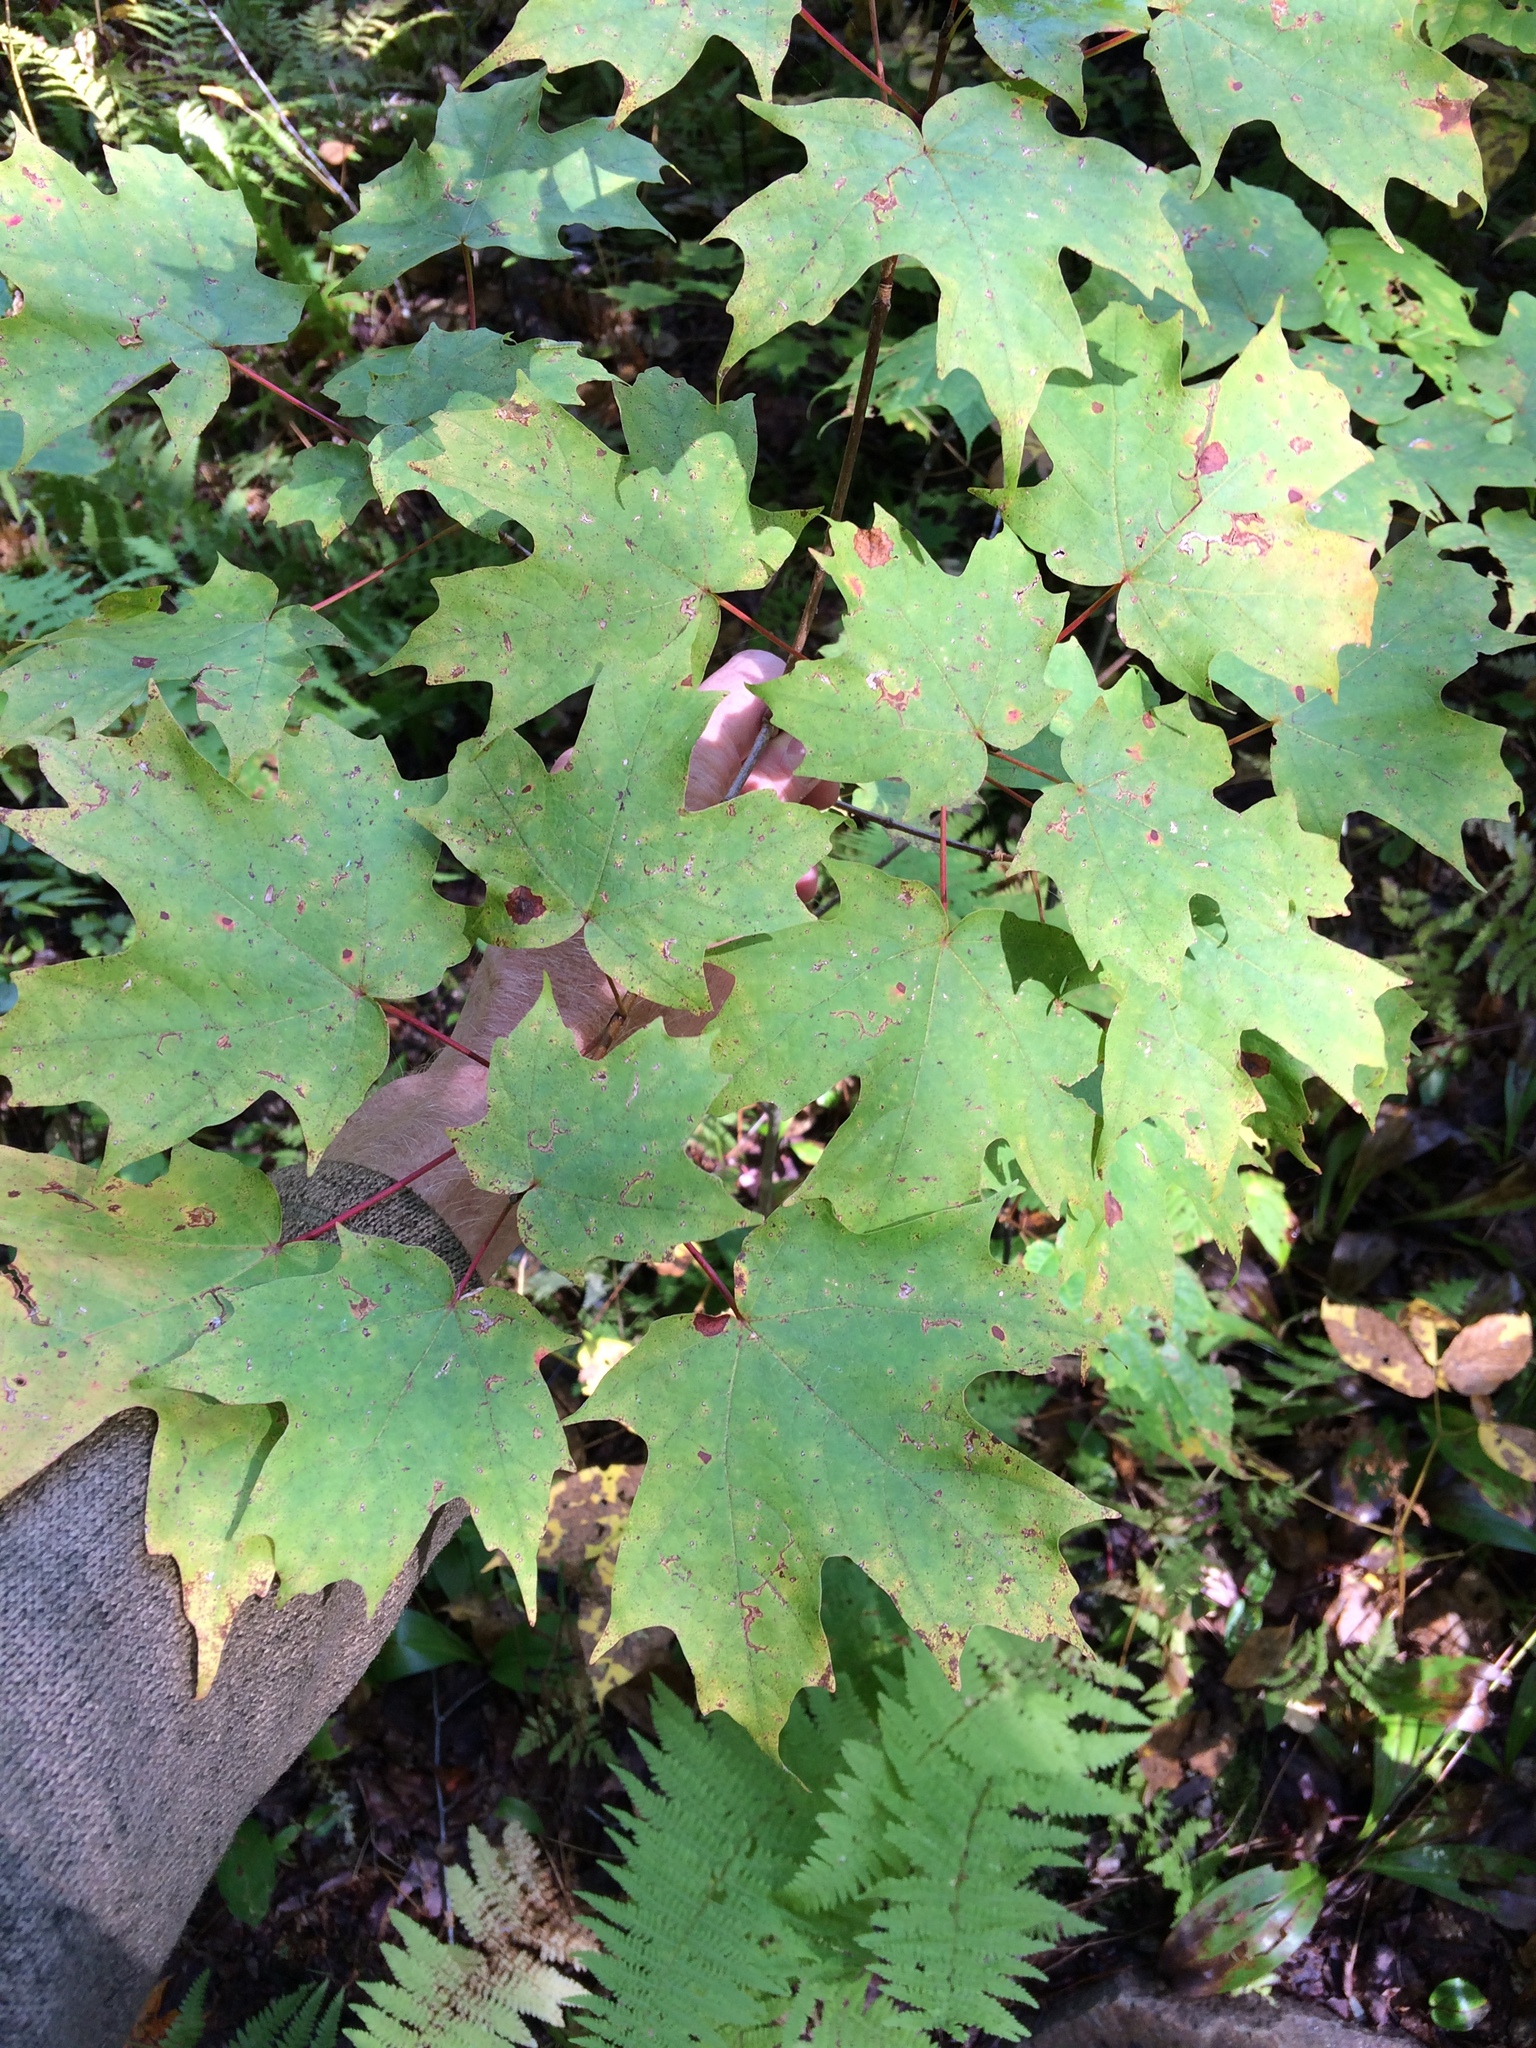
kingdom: Plantae
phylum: Tracheophyta
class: Magnoliopsida
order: Sapindales
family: Sapindaceae
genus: Acer
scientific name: Acer saccharum
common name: Sugar maple
